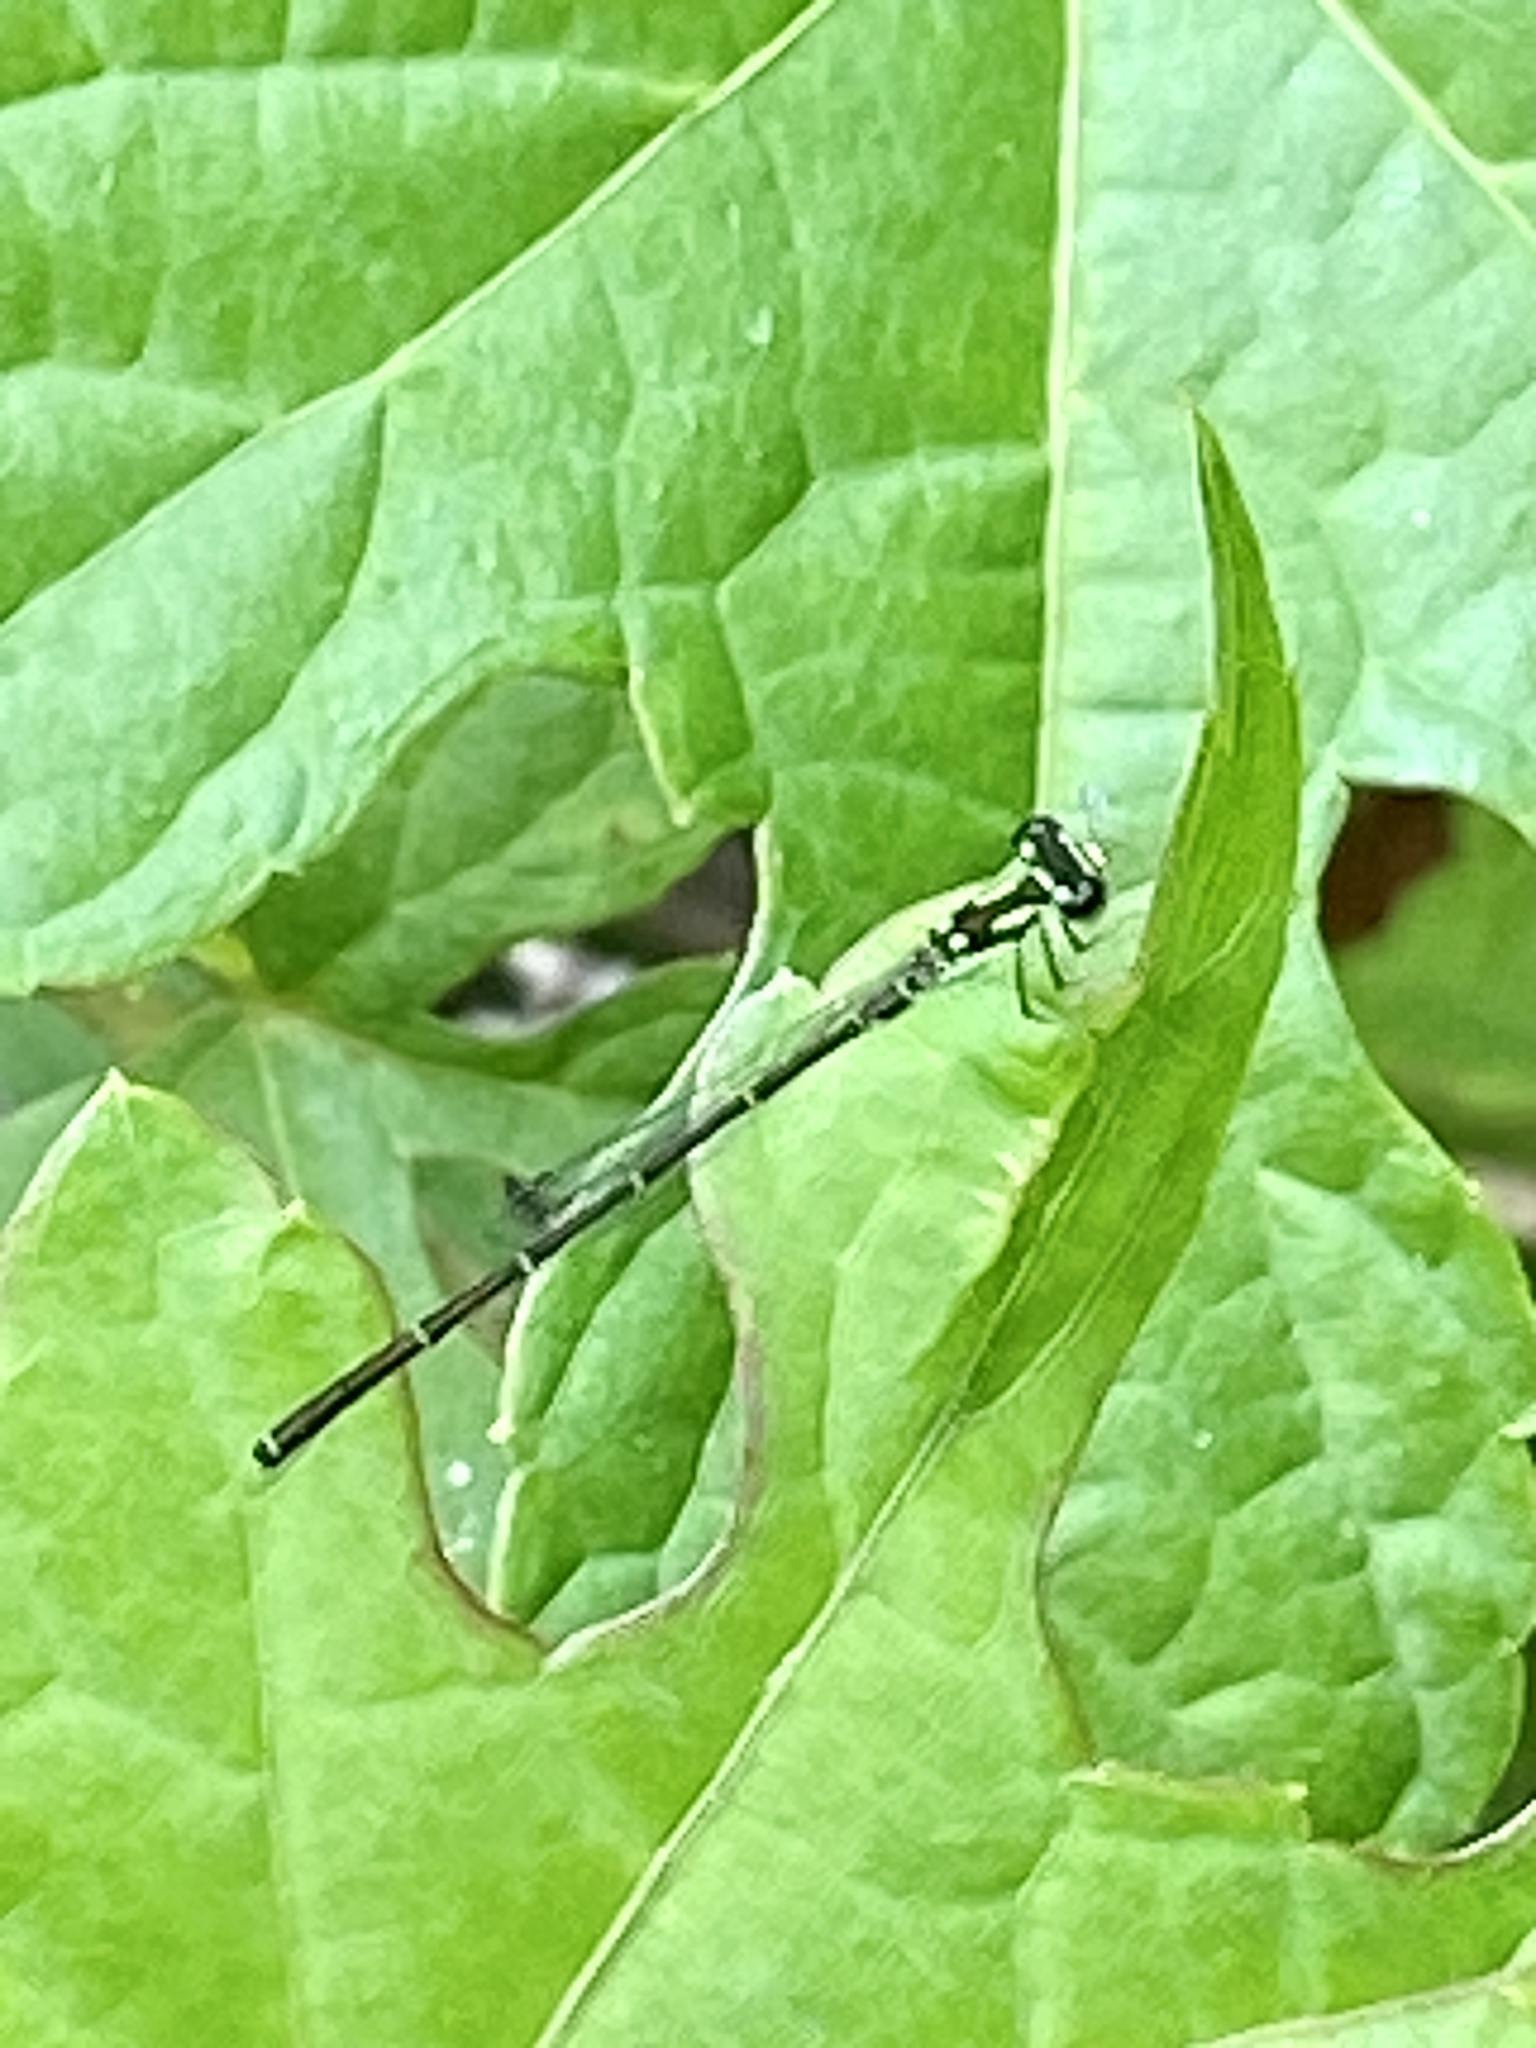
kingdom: Animalia
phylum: Arthropoda
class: Insecta
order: Odonata
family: Coenagrionidae
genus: Ischnura
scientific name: Ischnura posita
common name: Fragile forktail
